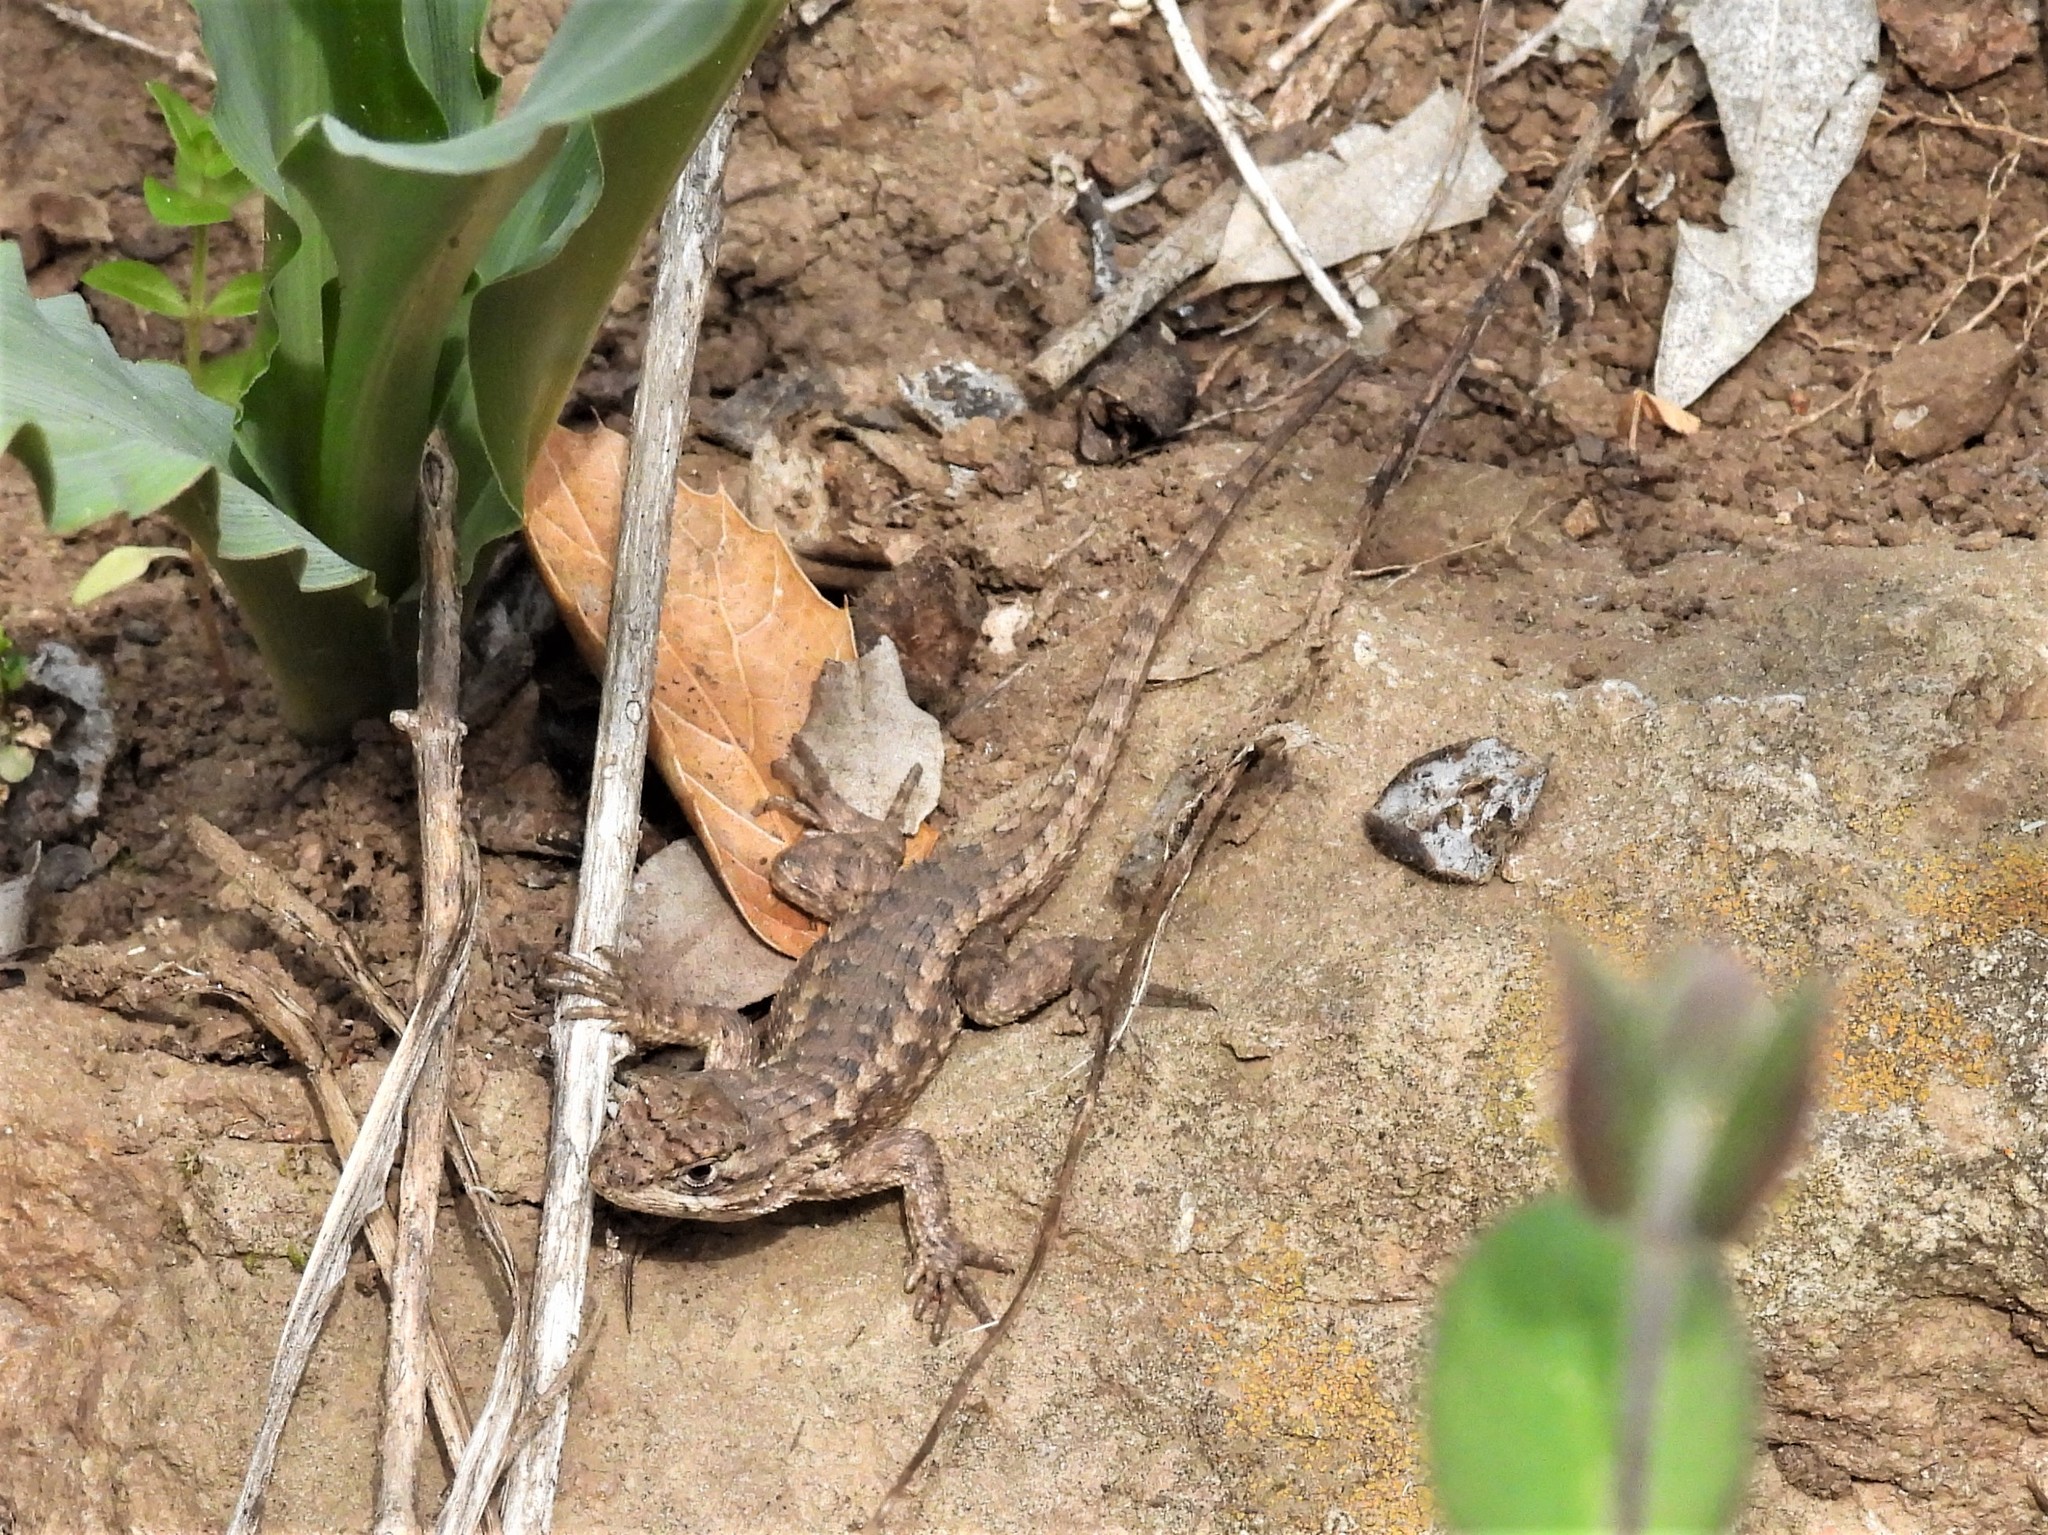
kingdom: Animalia
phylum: Chordata
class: Squamata
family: Phrynosomatidae
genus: Sceloporus
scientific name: Sceloporus occidentalis
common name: Western fence lizard
